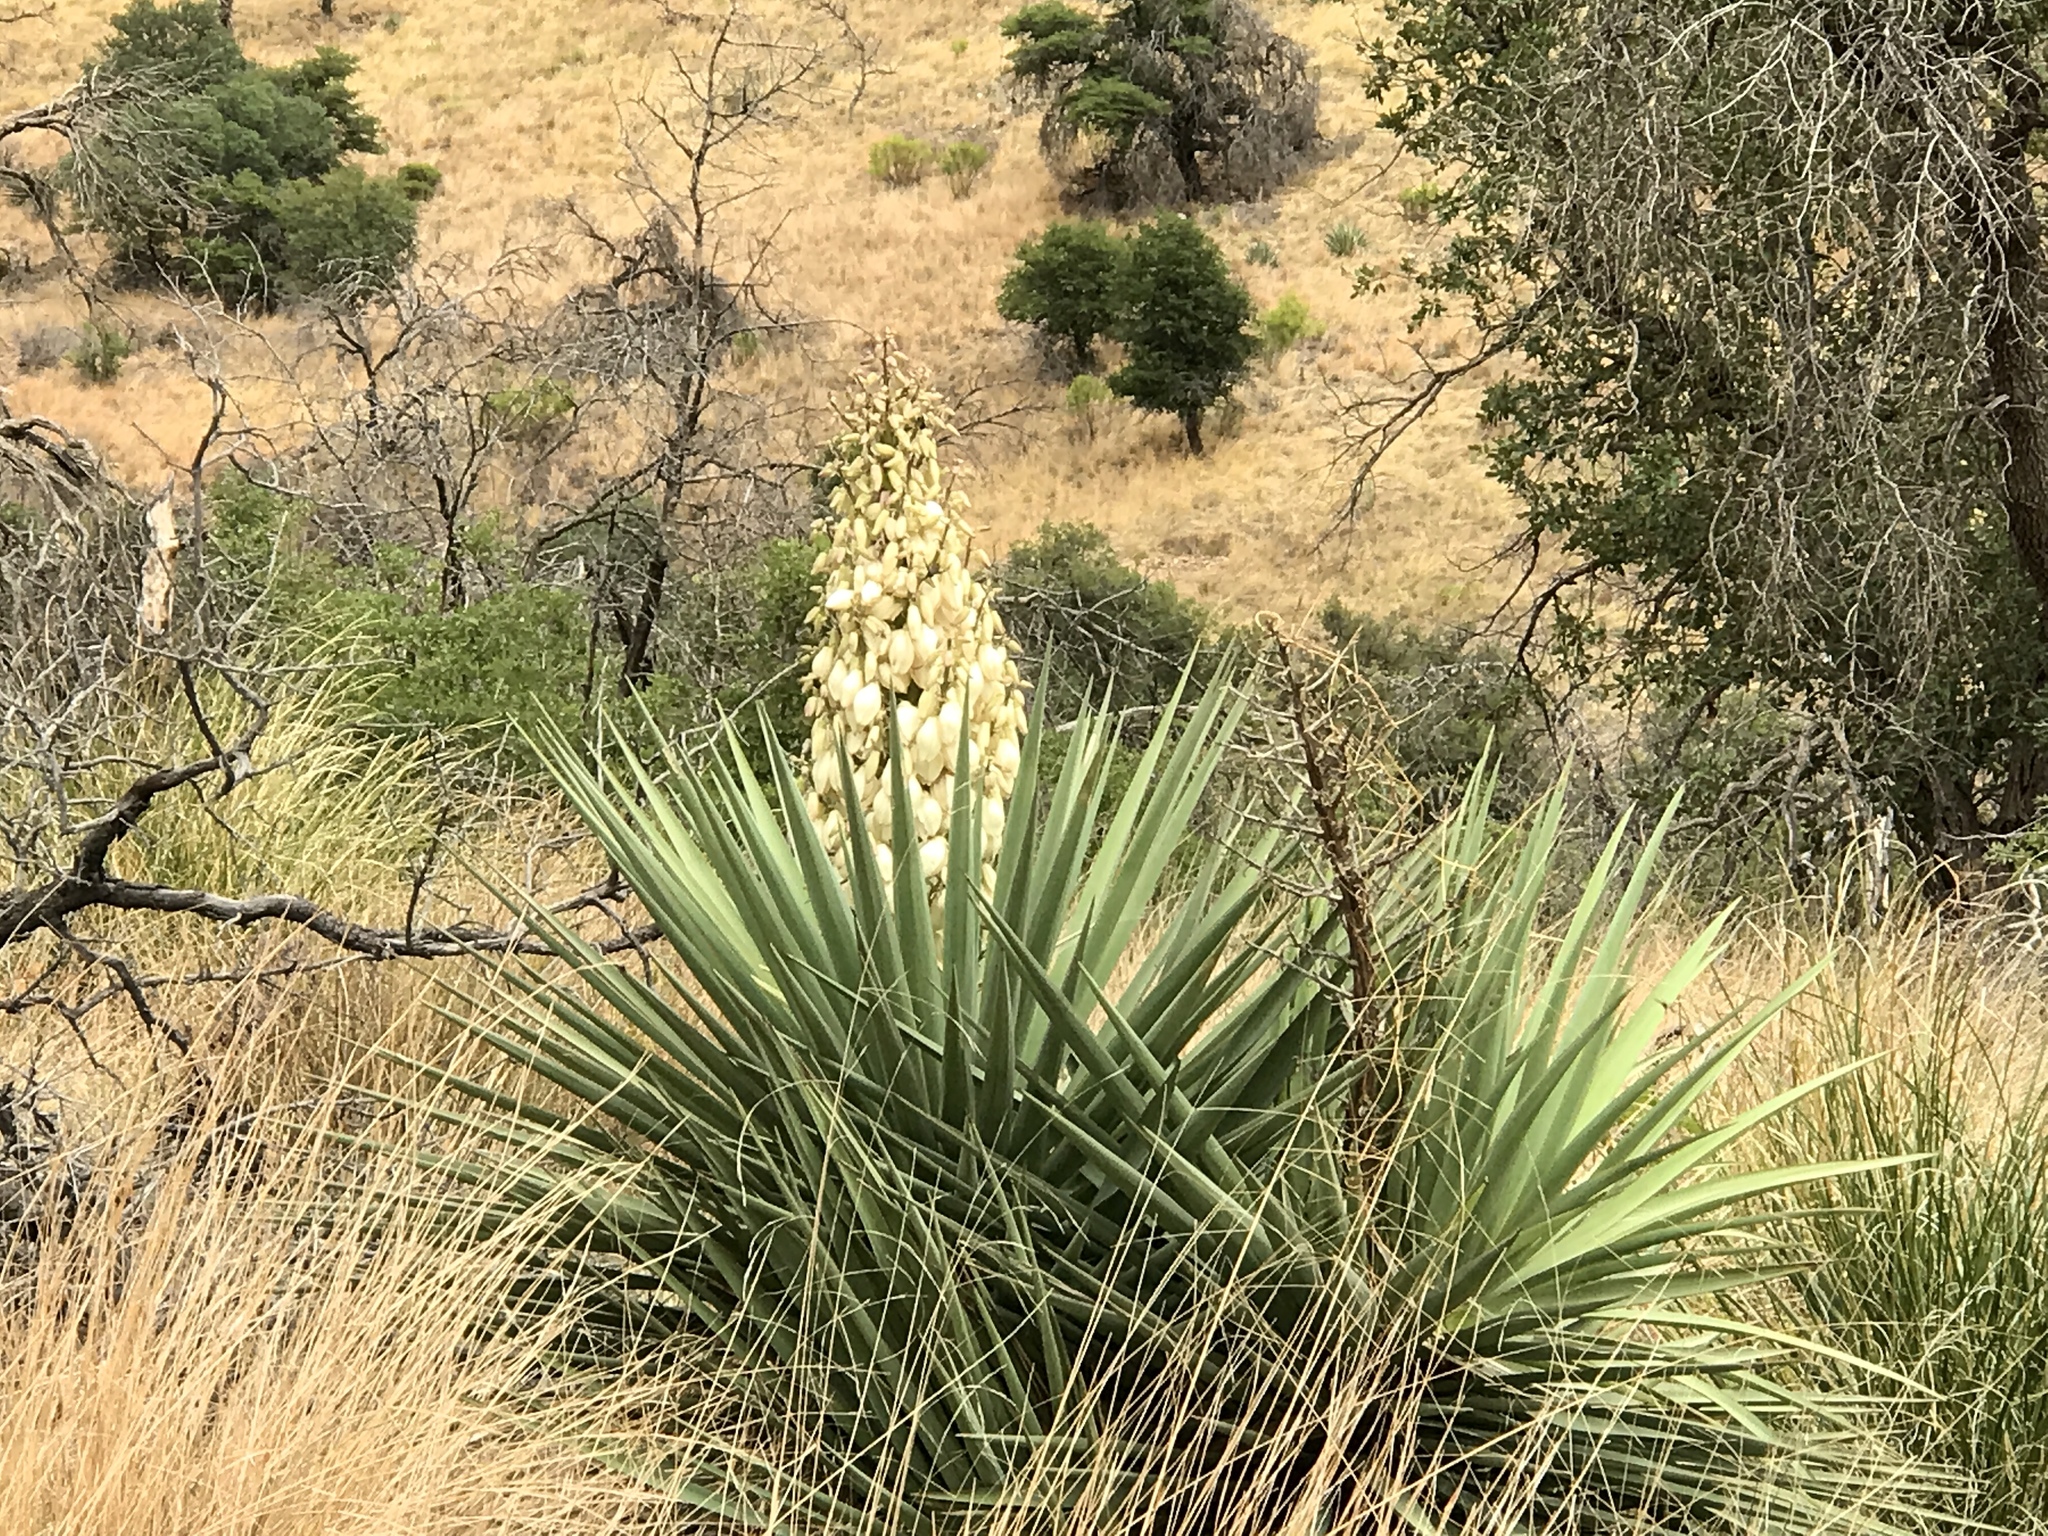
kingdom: Plantae
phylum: Tracheophyta
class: Liliopsida
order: Asparagales
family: Asparagaceae
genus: Yucca
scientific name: Yucca madrensis
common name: Hoary yucca
